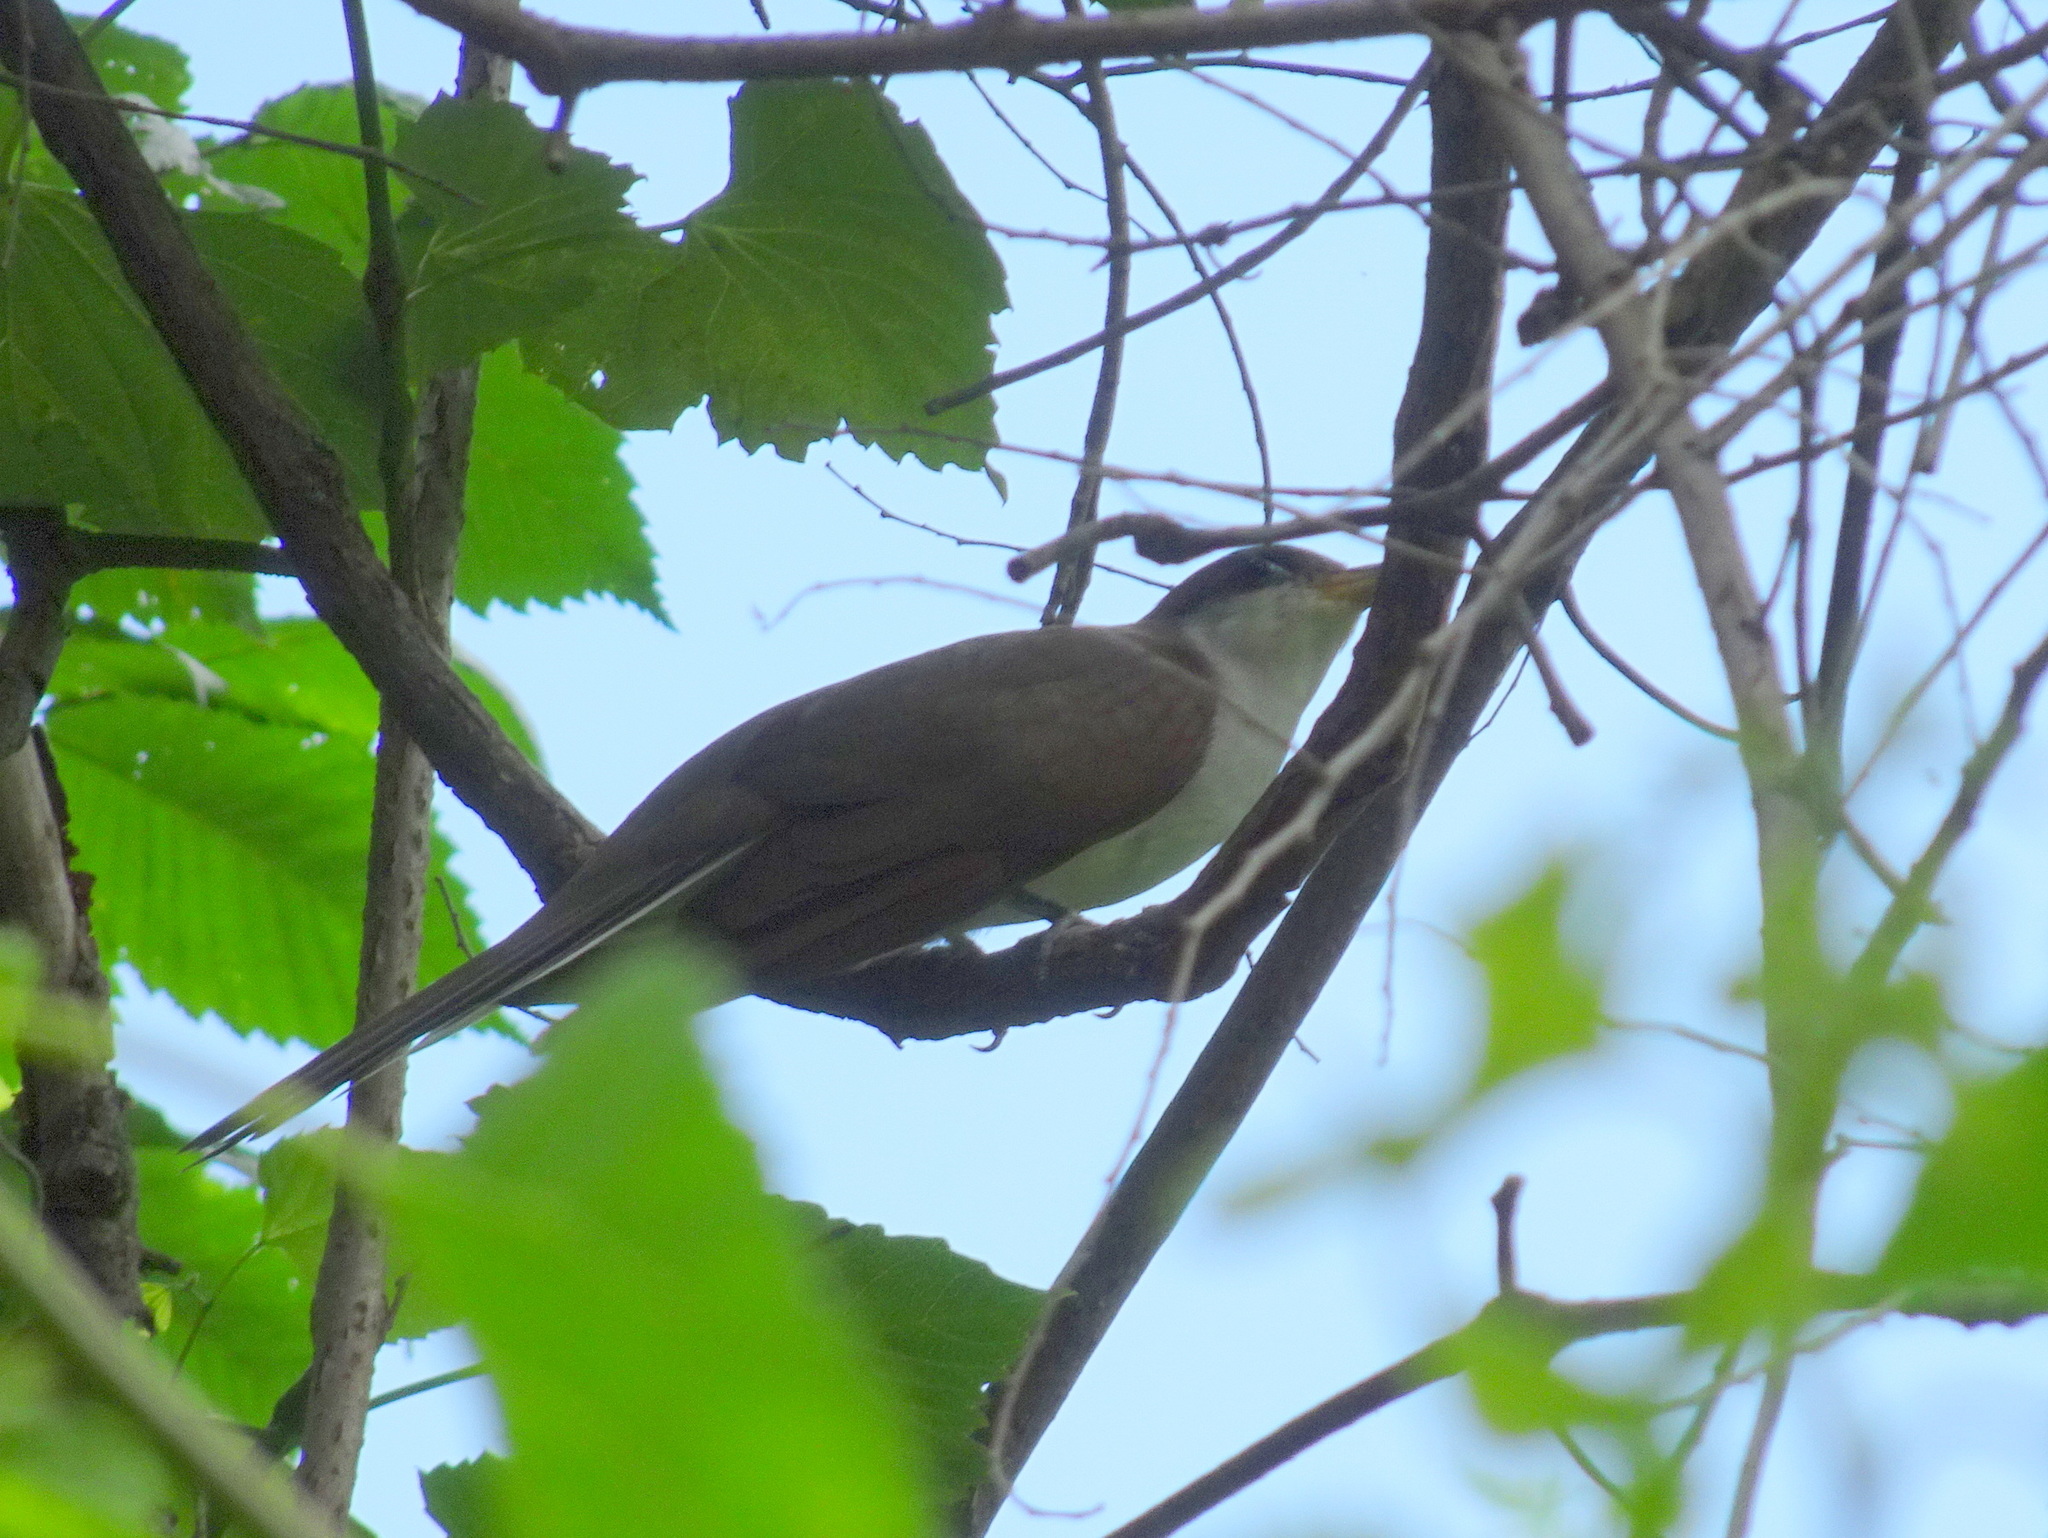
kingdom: Animalia
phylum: Chordata
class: Aves
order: Cuculiformes
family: Cuculidae
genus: Coccyzus
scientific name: Coccyzus americanus
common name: Yellow-billed cuckoo
